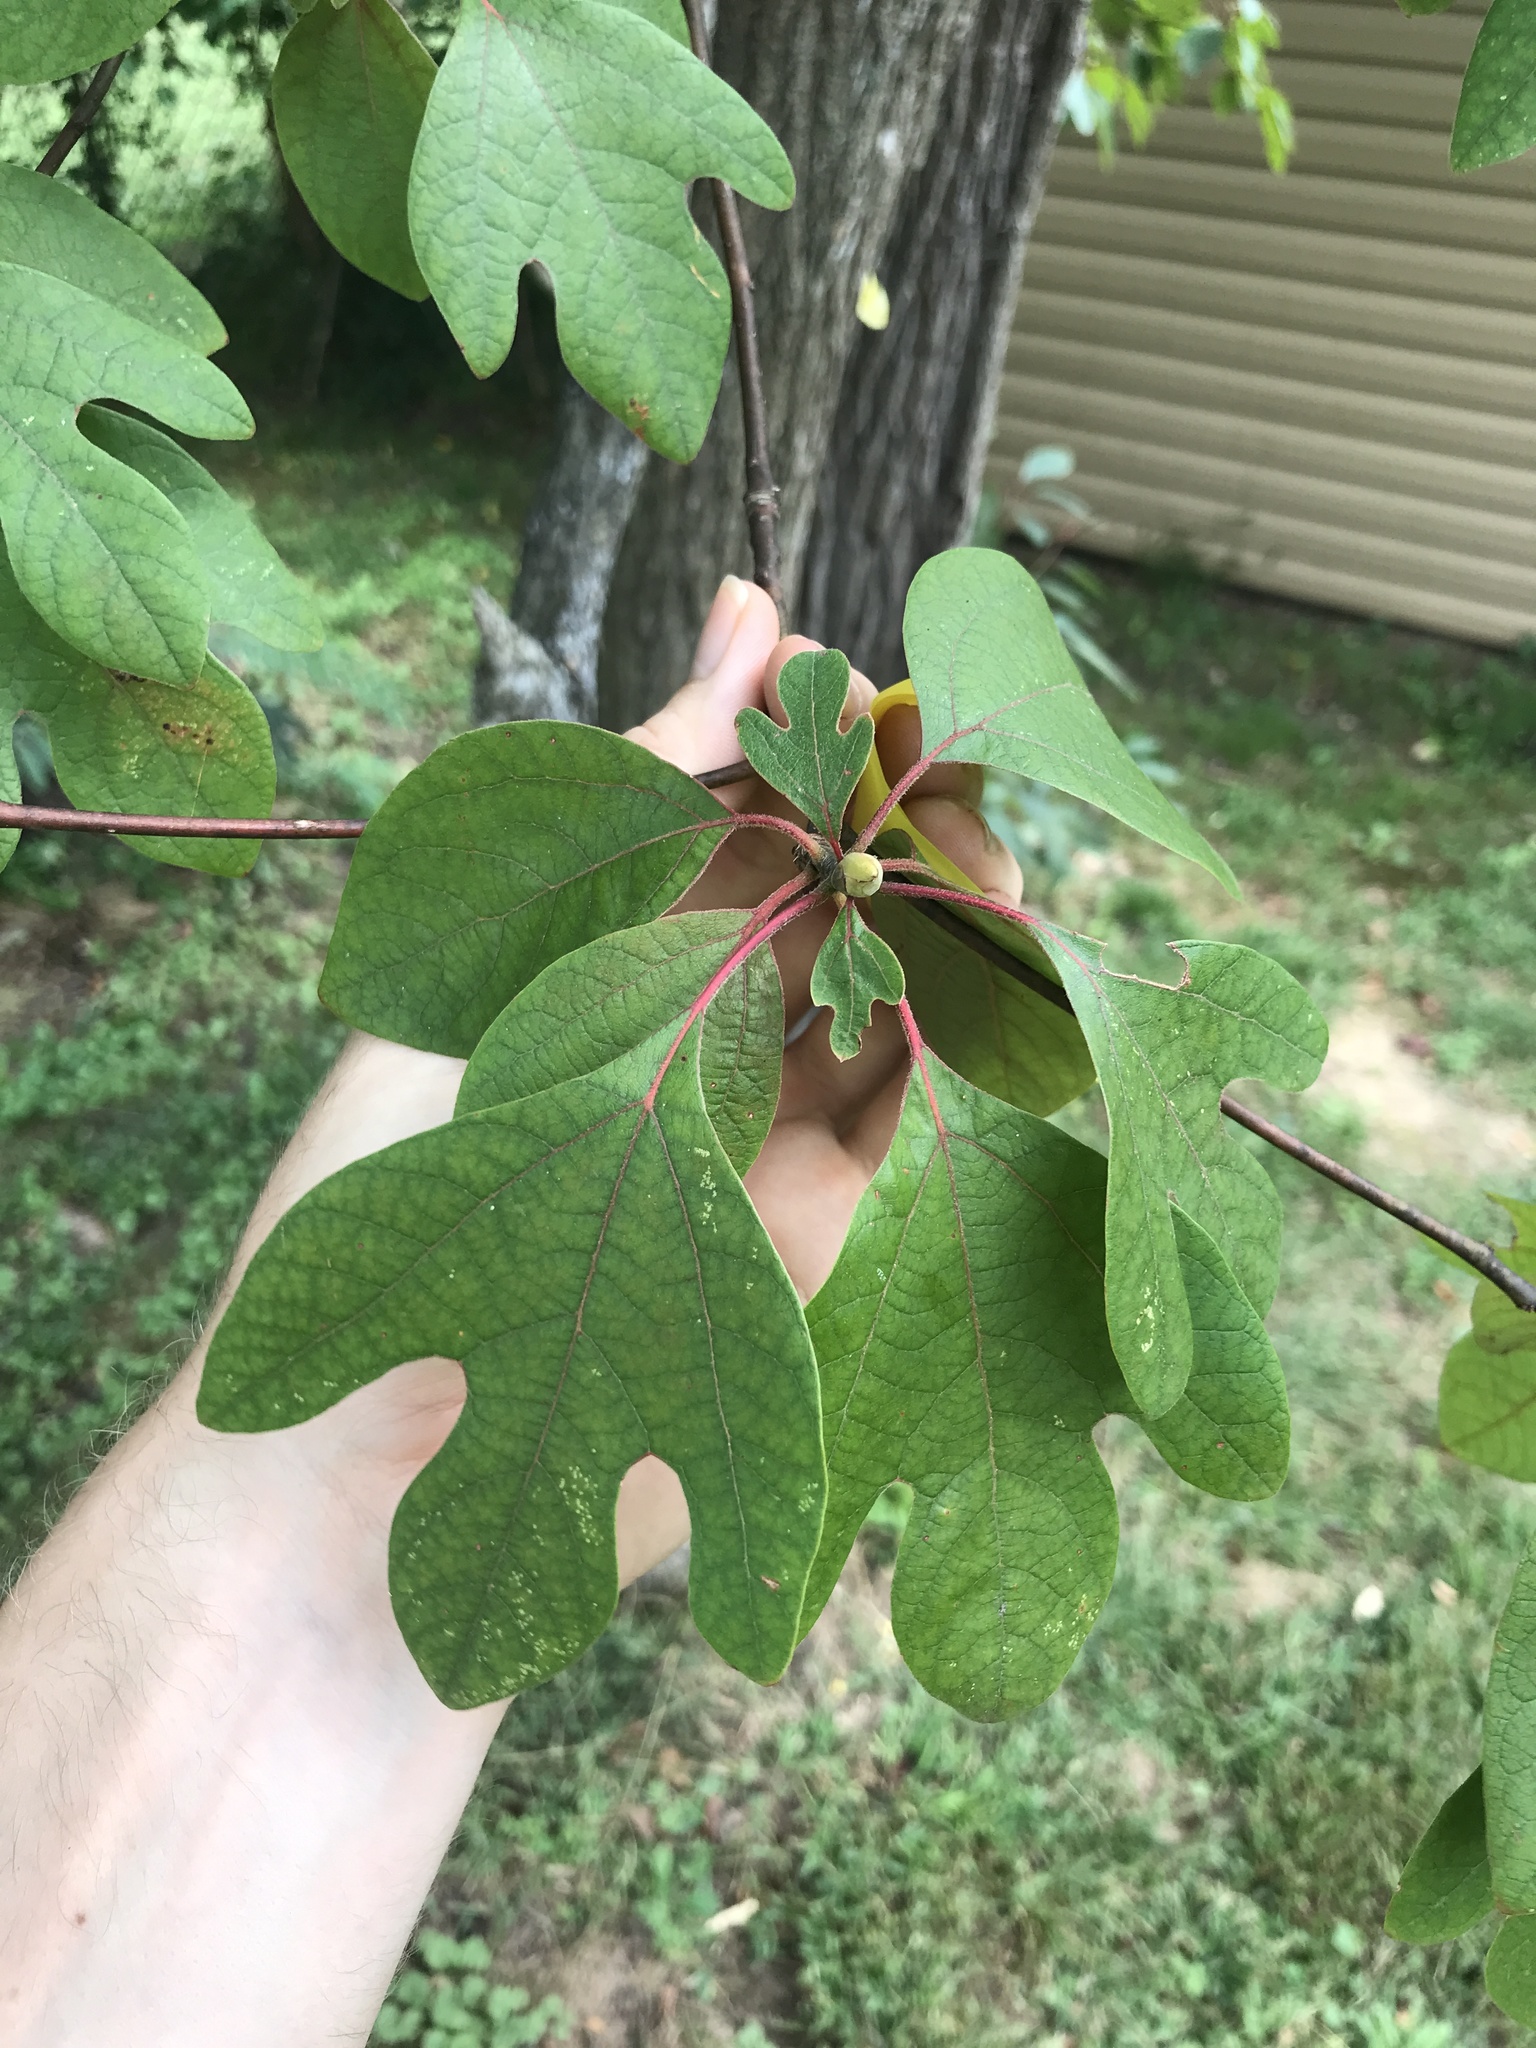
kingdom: Plantae
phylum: Tracheophyta
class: Magnoliopsida
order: Laurales
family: Lauraceae
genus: Sassafras
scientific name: Sassafras albidum
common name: Sassafras
